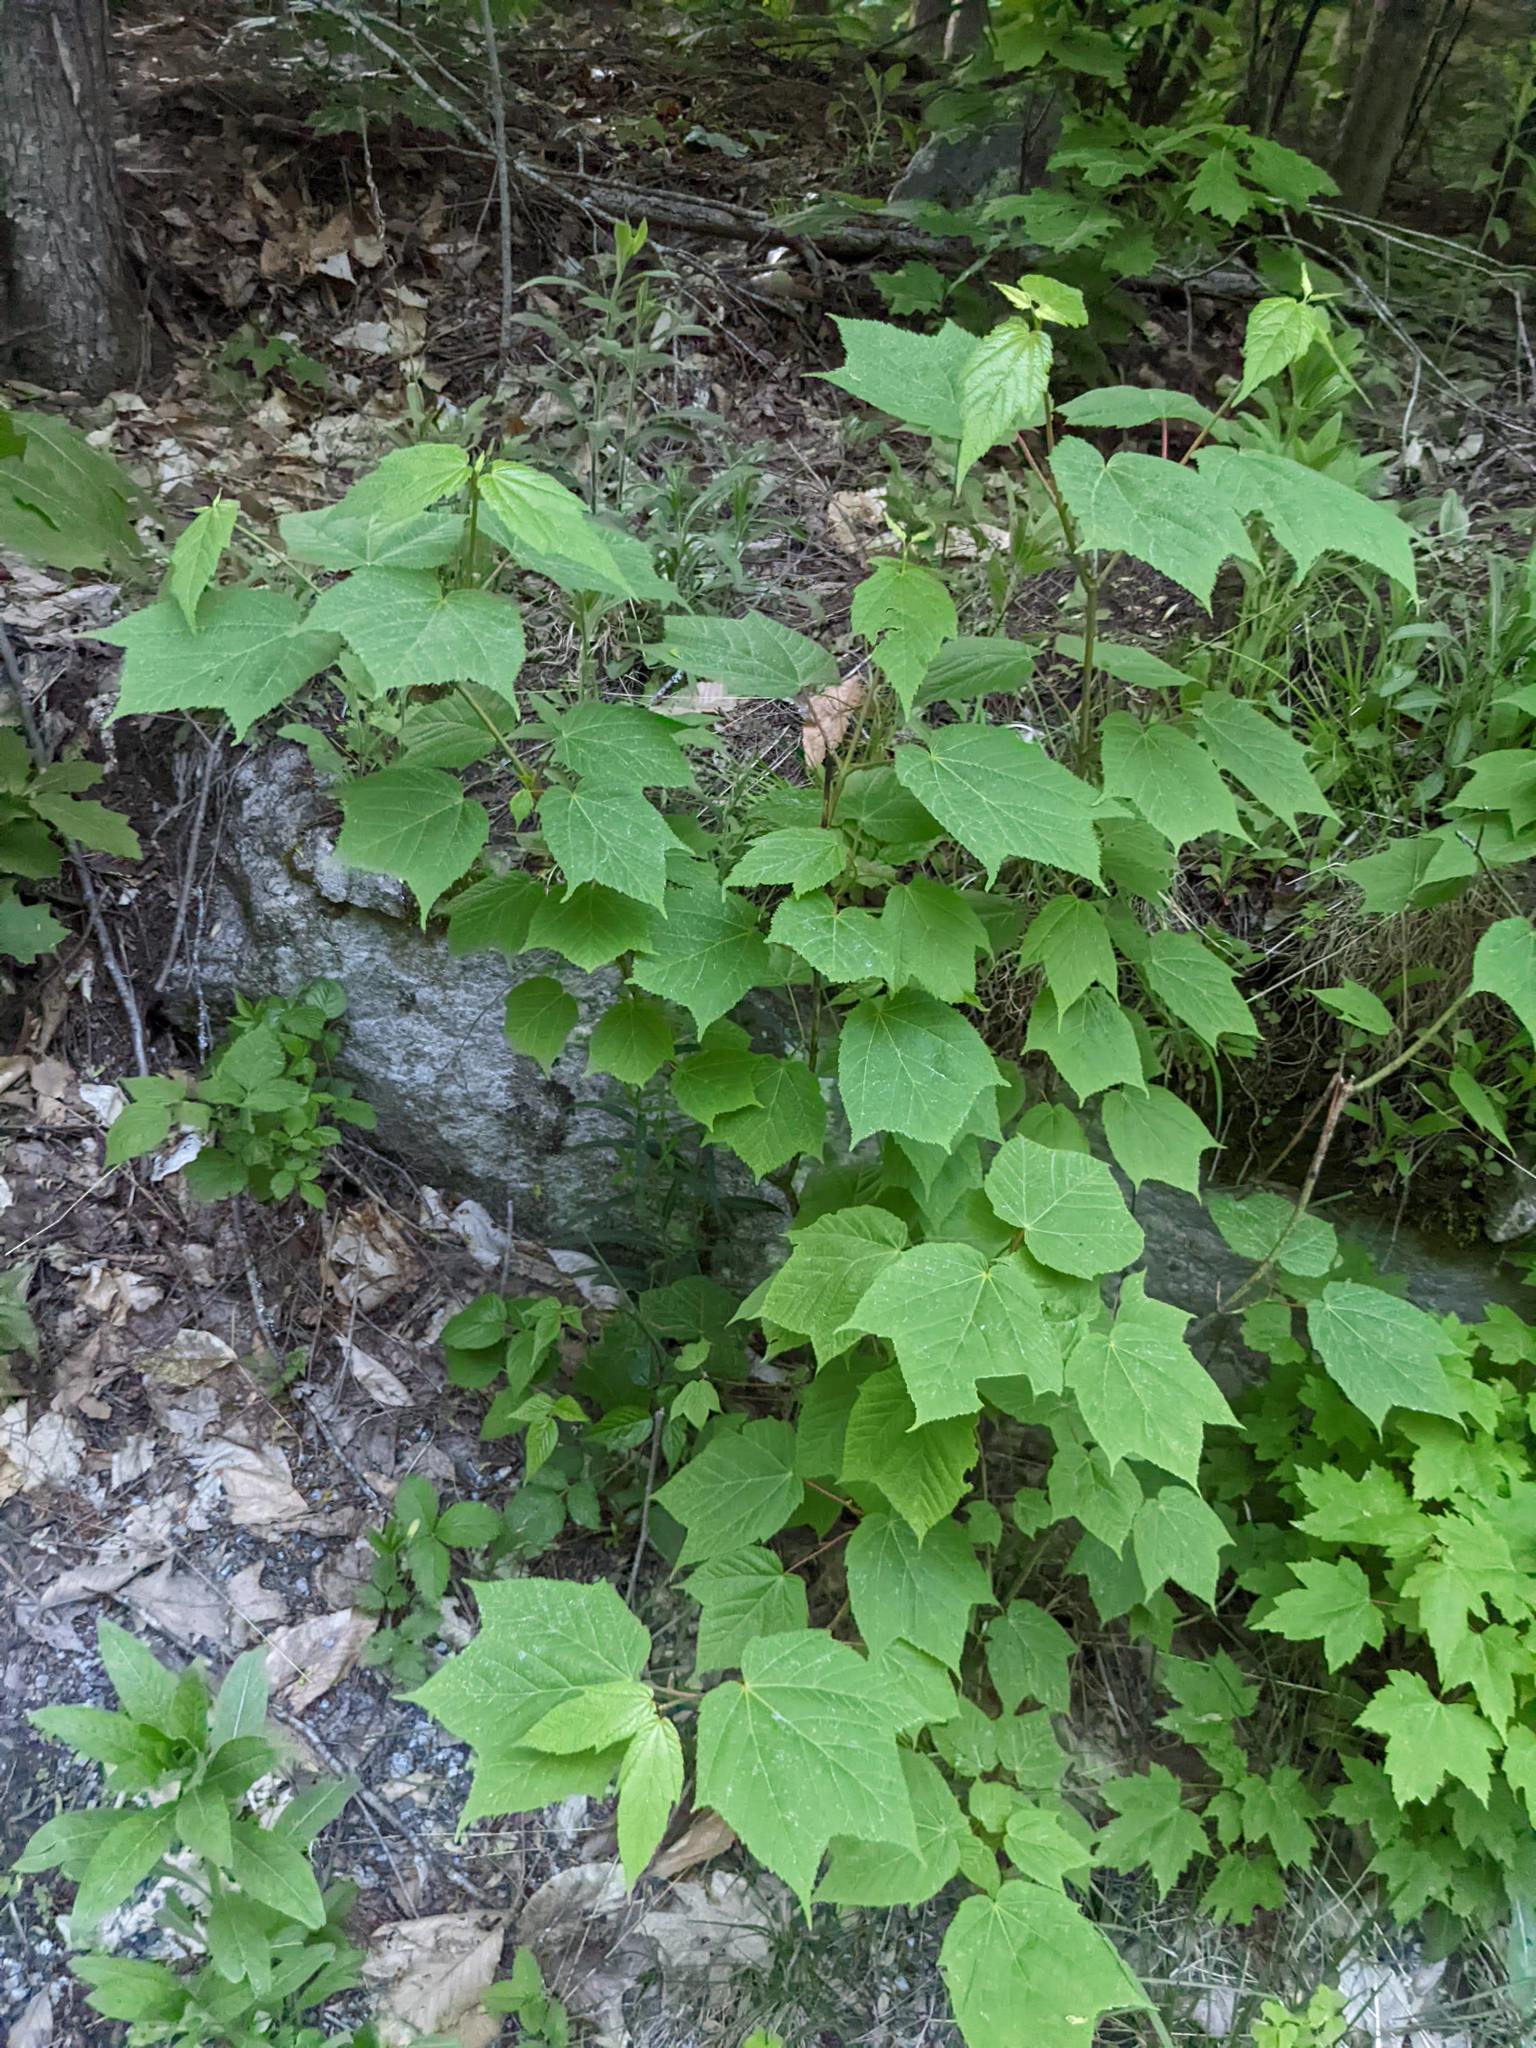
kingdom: Plantae
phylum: Tracheophyta
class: Magnoliopsida
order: Sapindales
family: Sapindaceae
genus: Acer
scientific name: Acer pensylvanicum
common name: Moosewood
